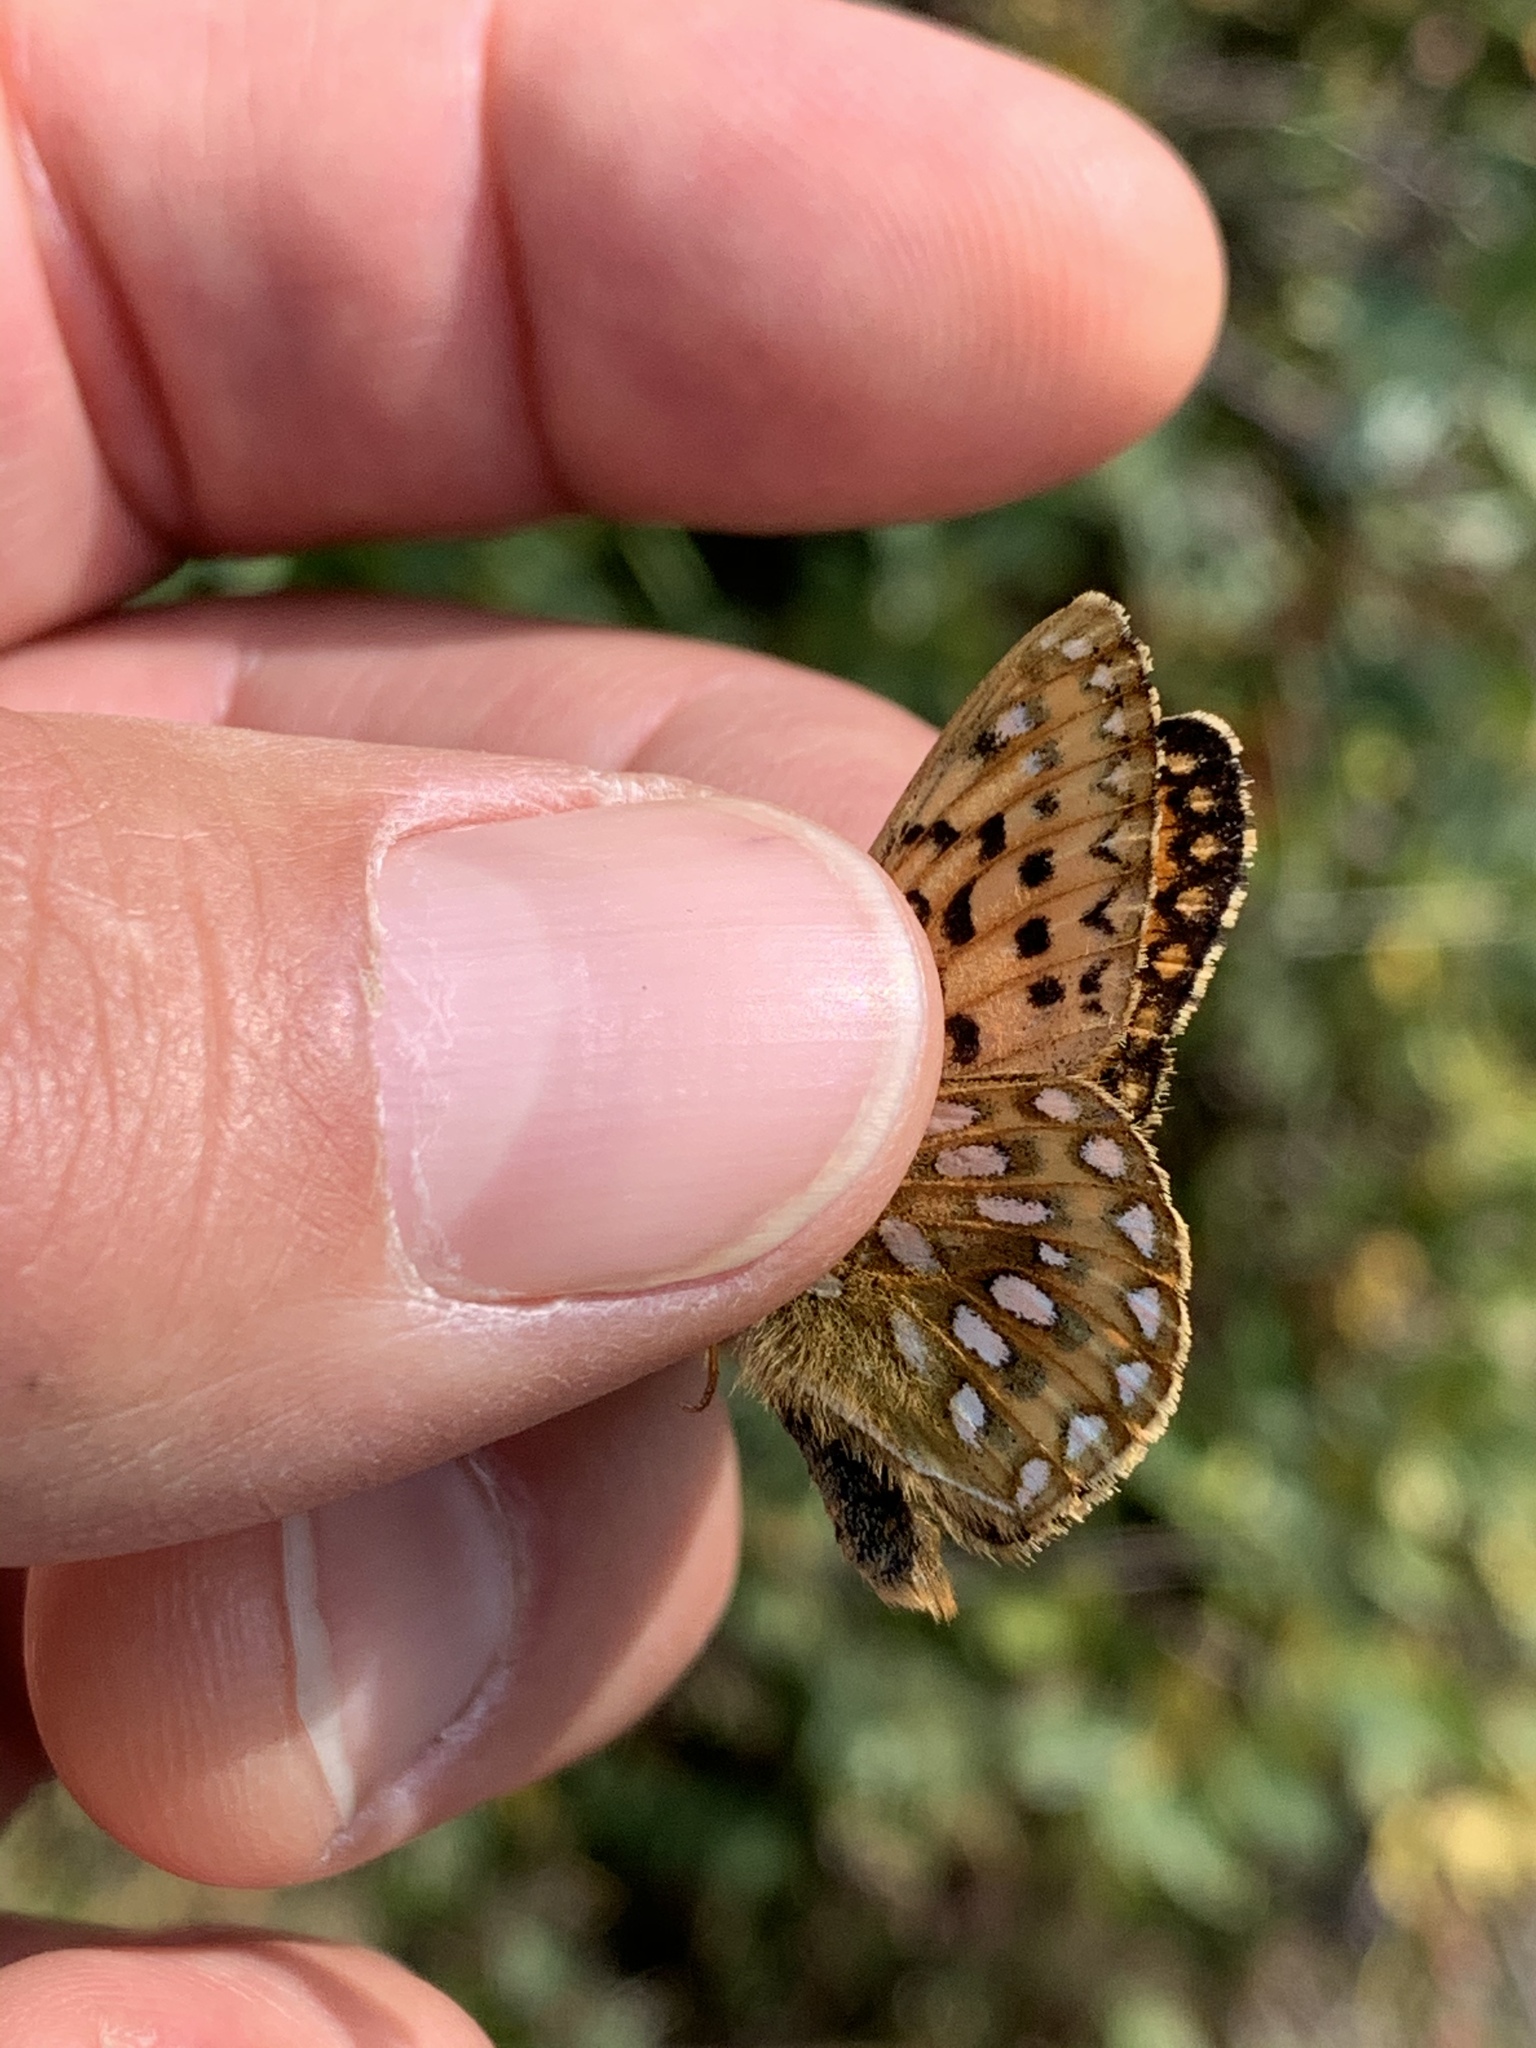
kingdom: Animalia
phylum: Arthropoda
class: Insecta
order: Lepidoptera
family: Nymphalidae
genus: Speyeria
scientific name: Speyeria mormonia
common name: Mormon fritillary
